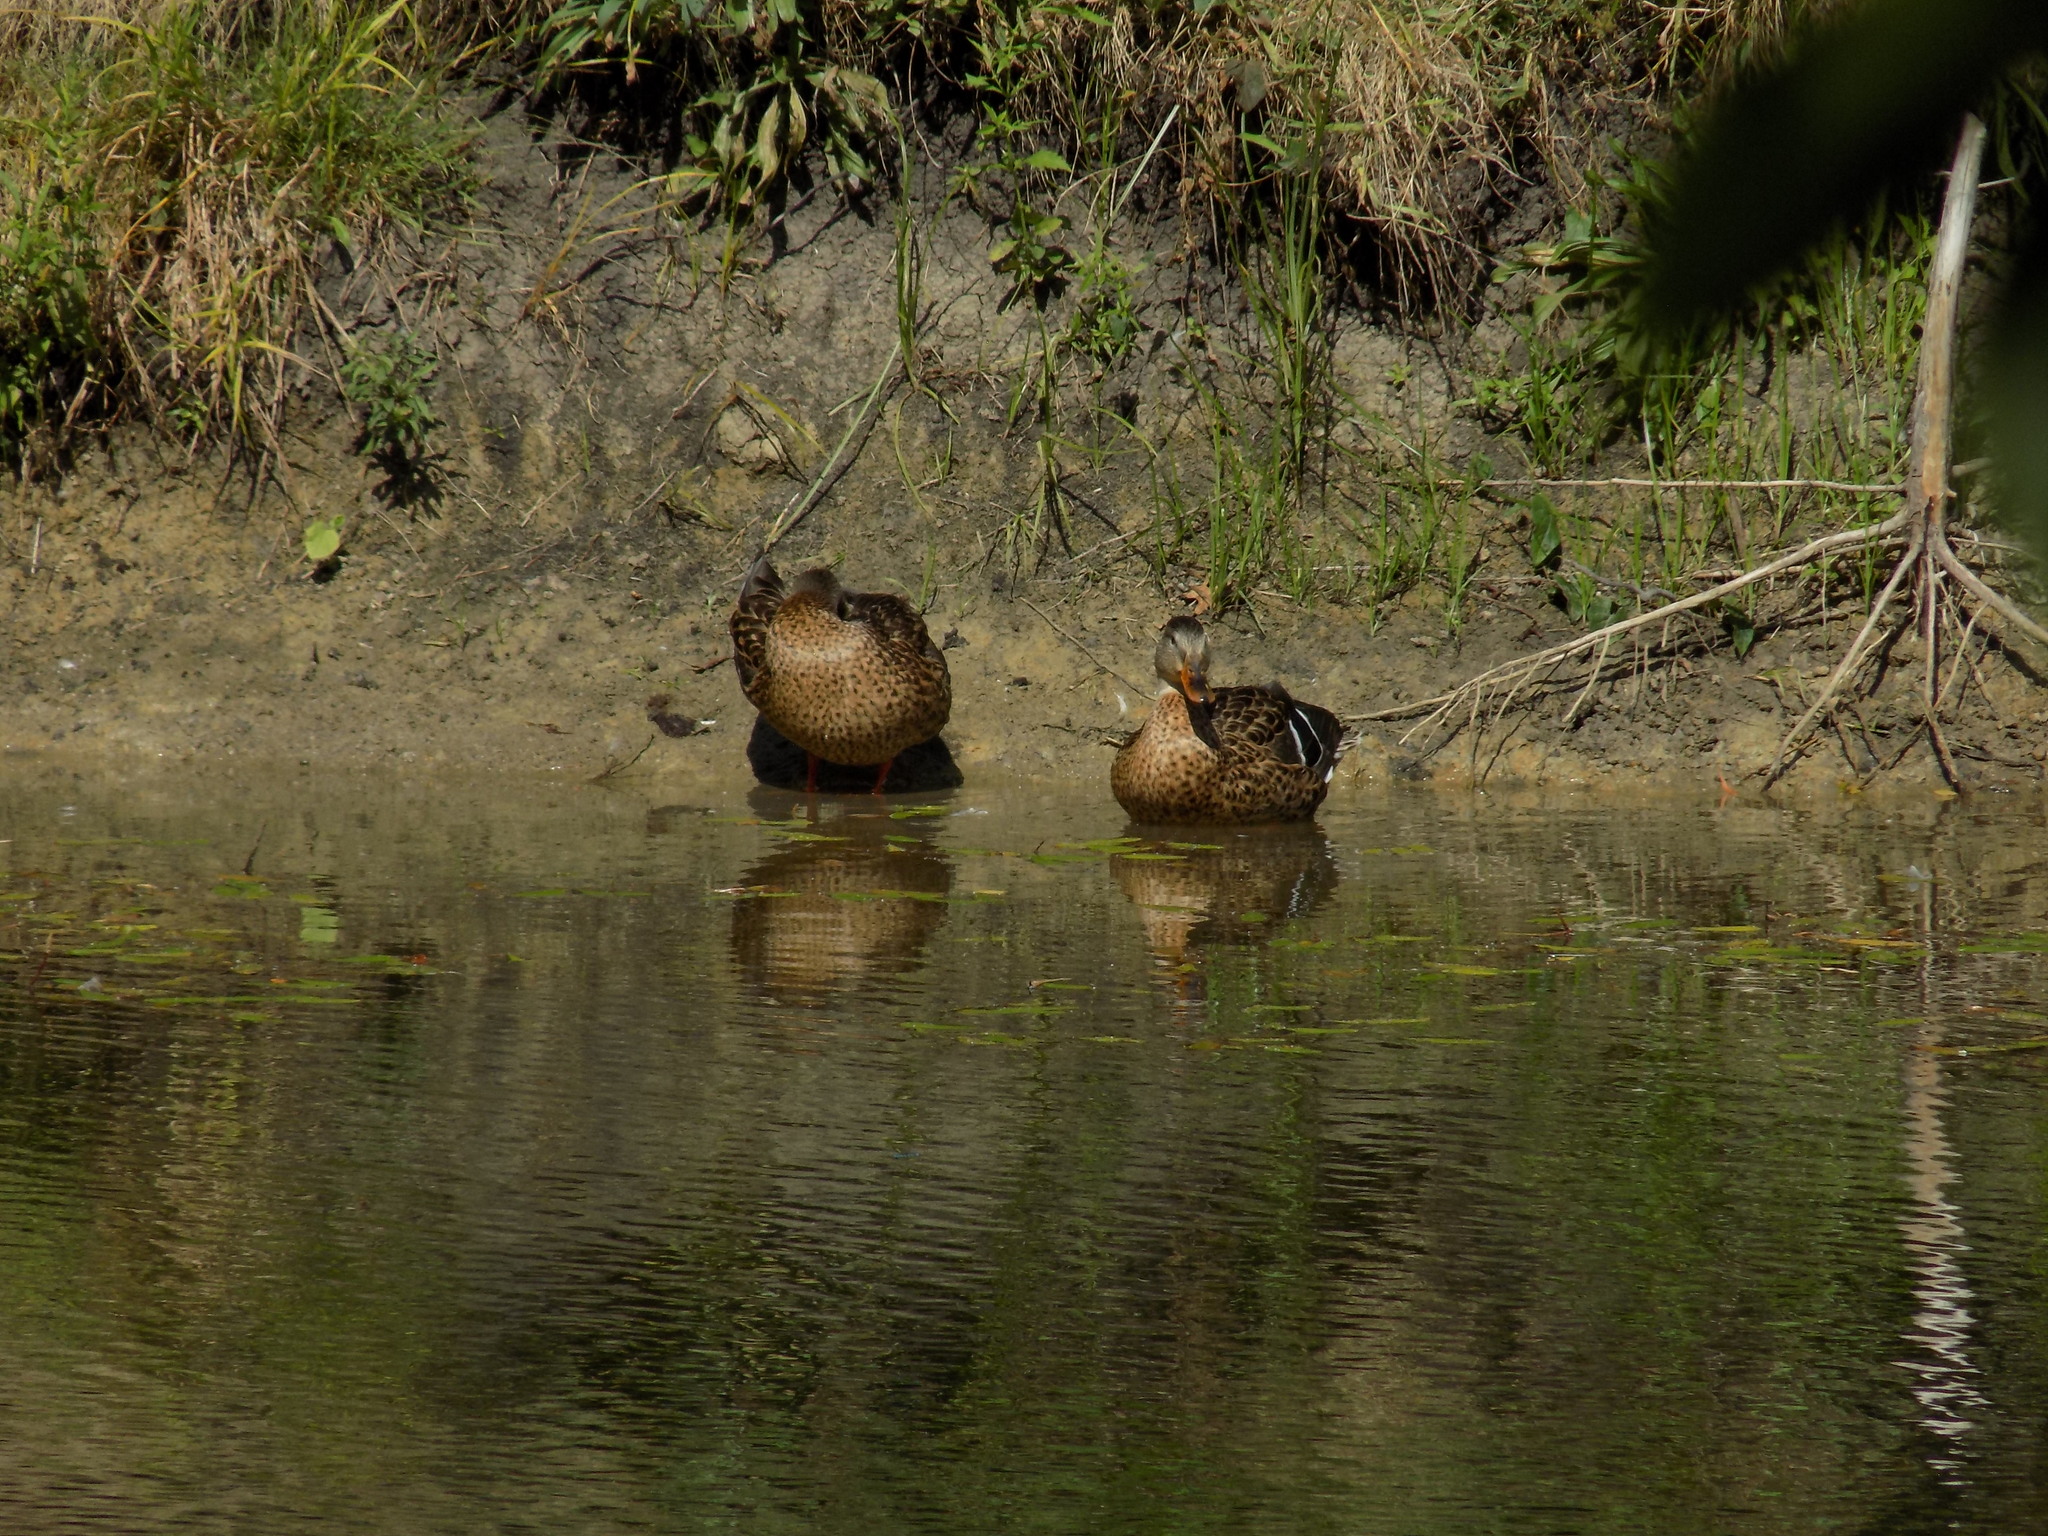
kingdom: Animalia
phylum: Chordata
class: Aves
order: Anseriformes
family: Anatidae
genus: Anas
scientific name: Anas platyrhynchos
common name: Mallard
